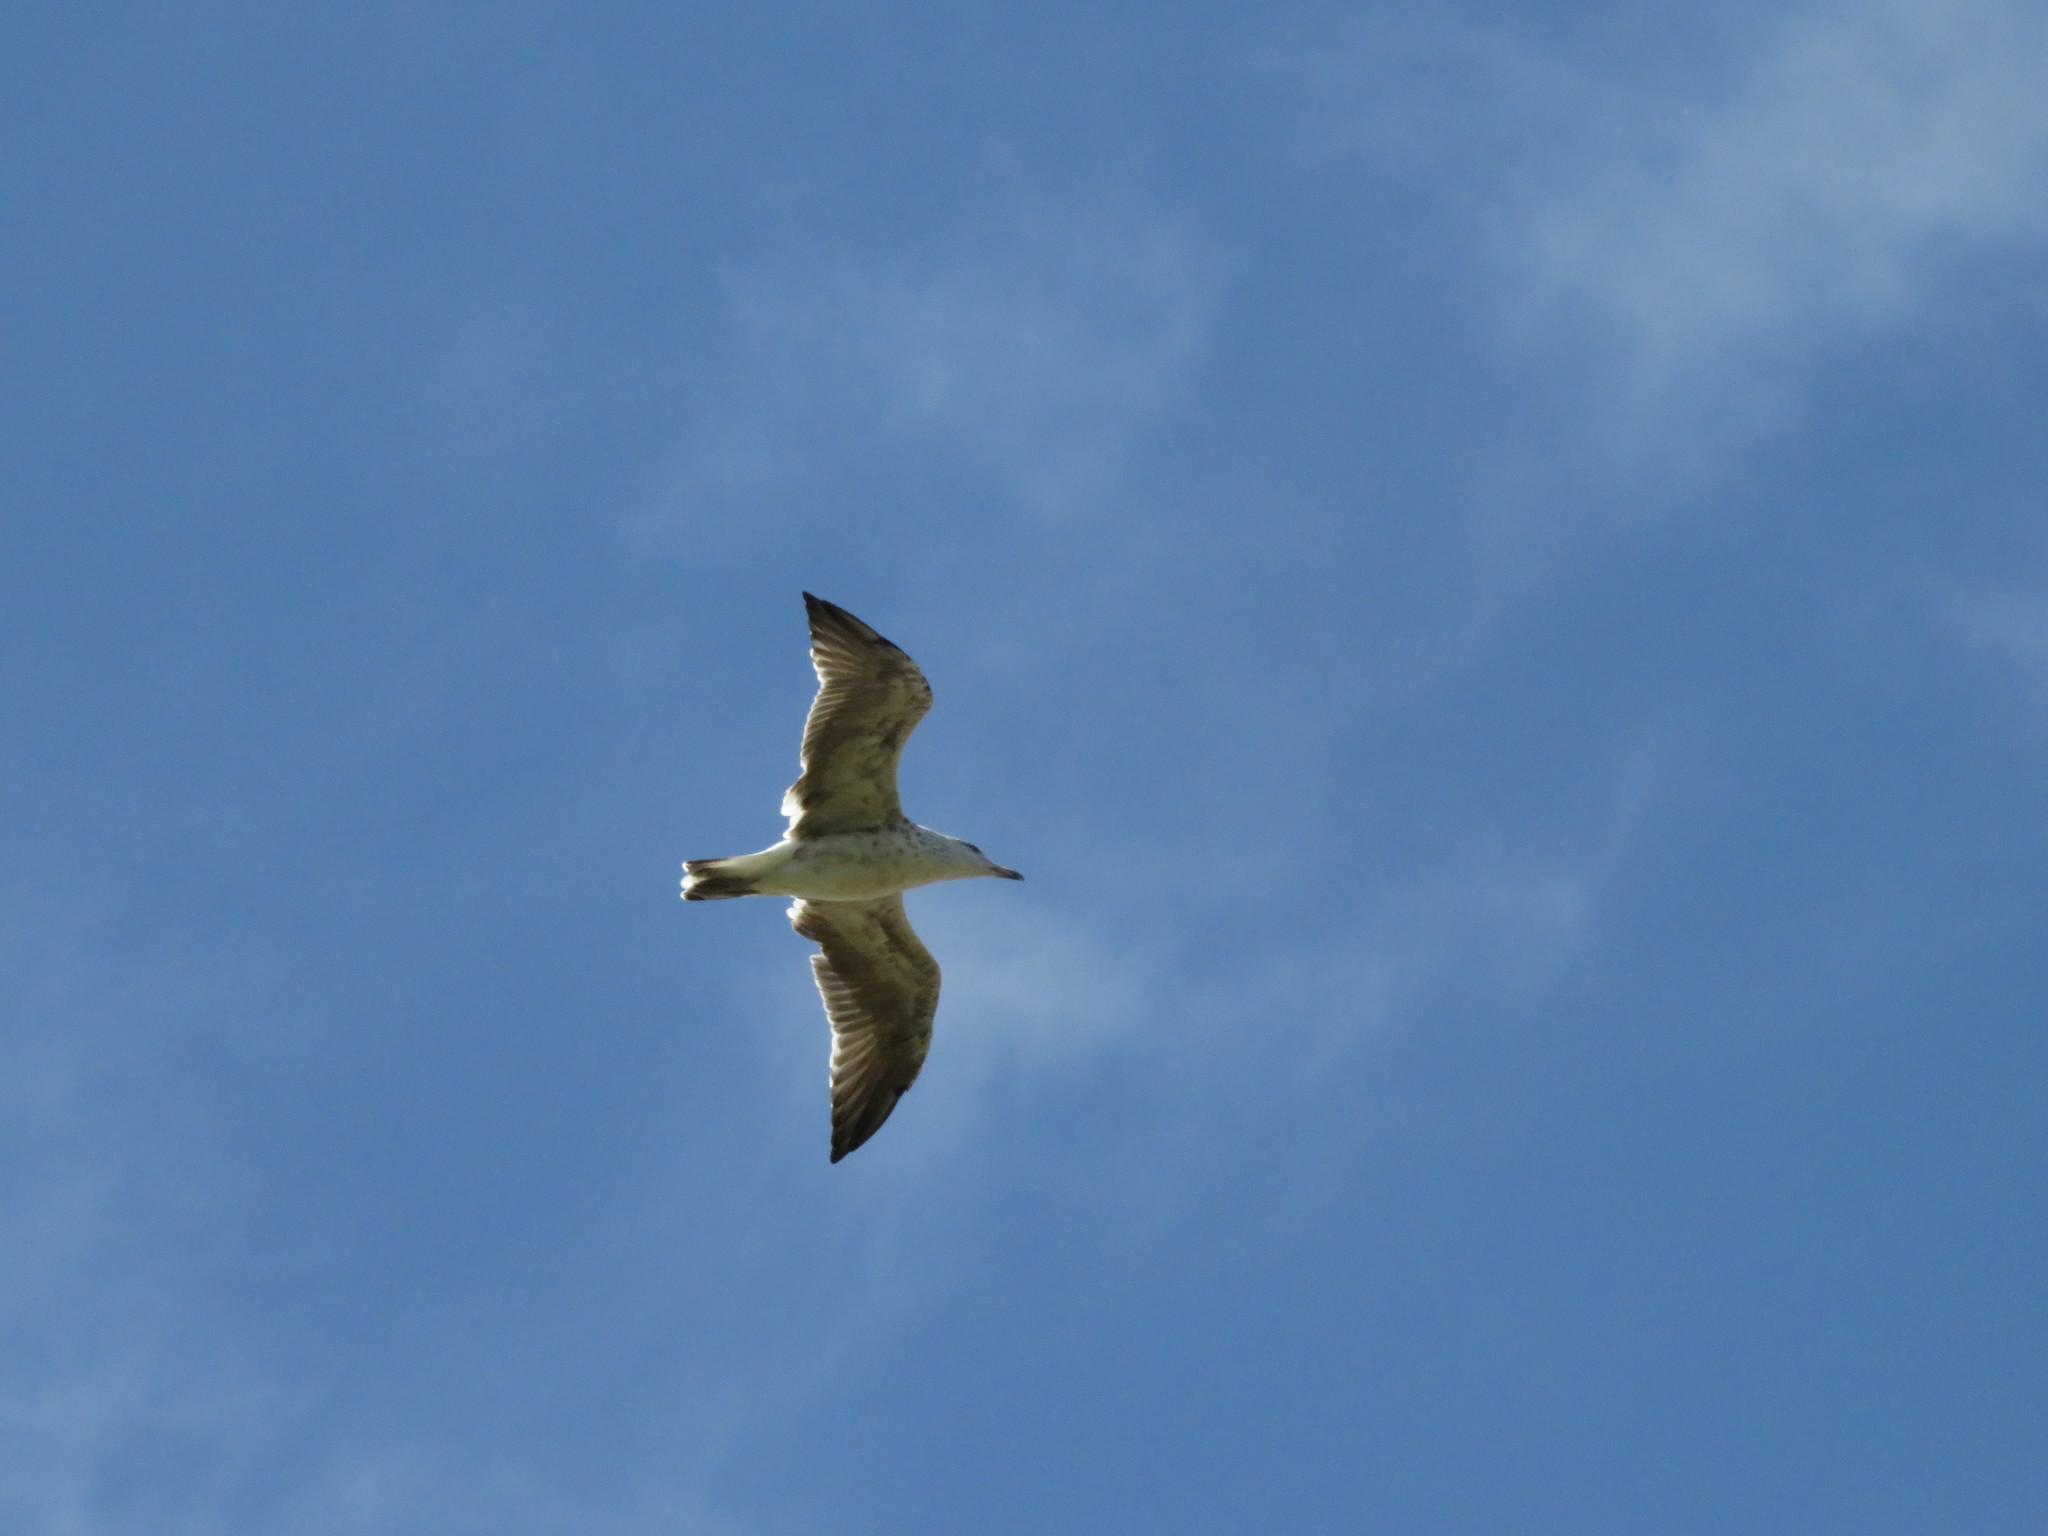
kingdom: Animalia
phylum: Chordata
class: Aves
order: Charadriiformes
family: Laridae
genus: Larus
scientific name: Larus dominicanus
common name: Kelp gull
